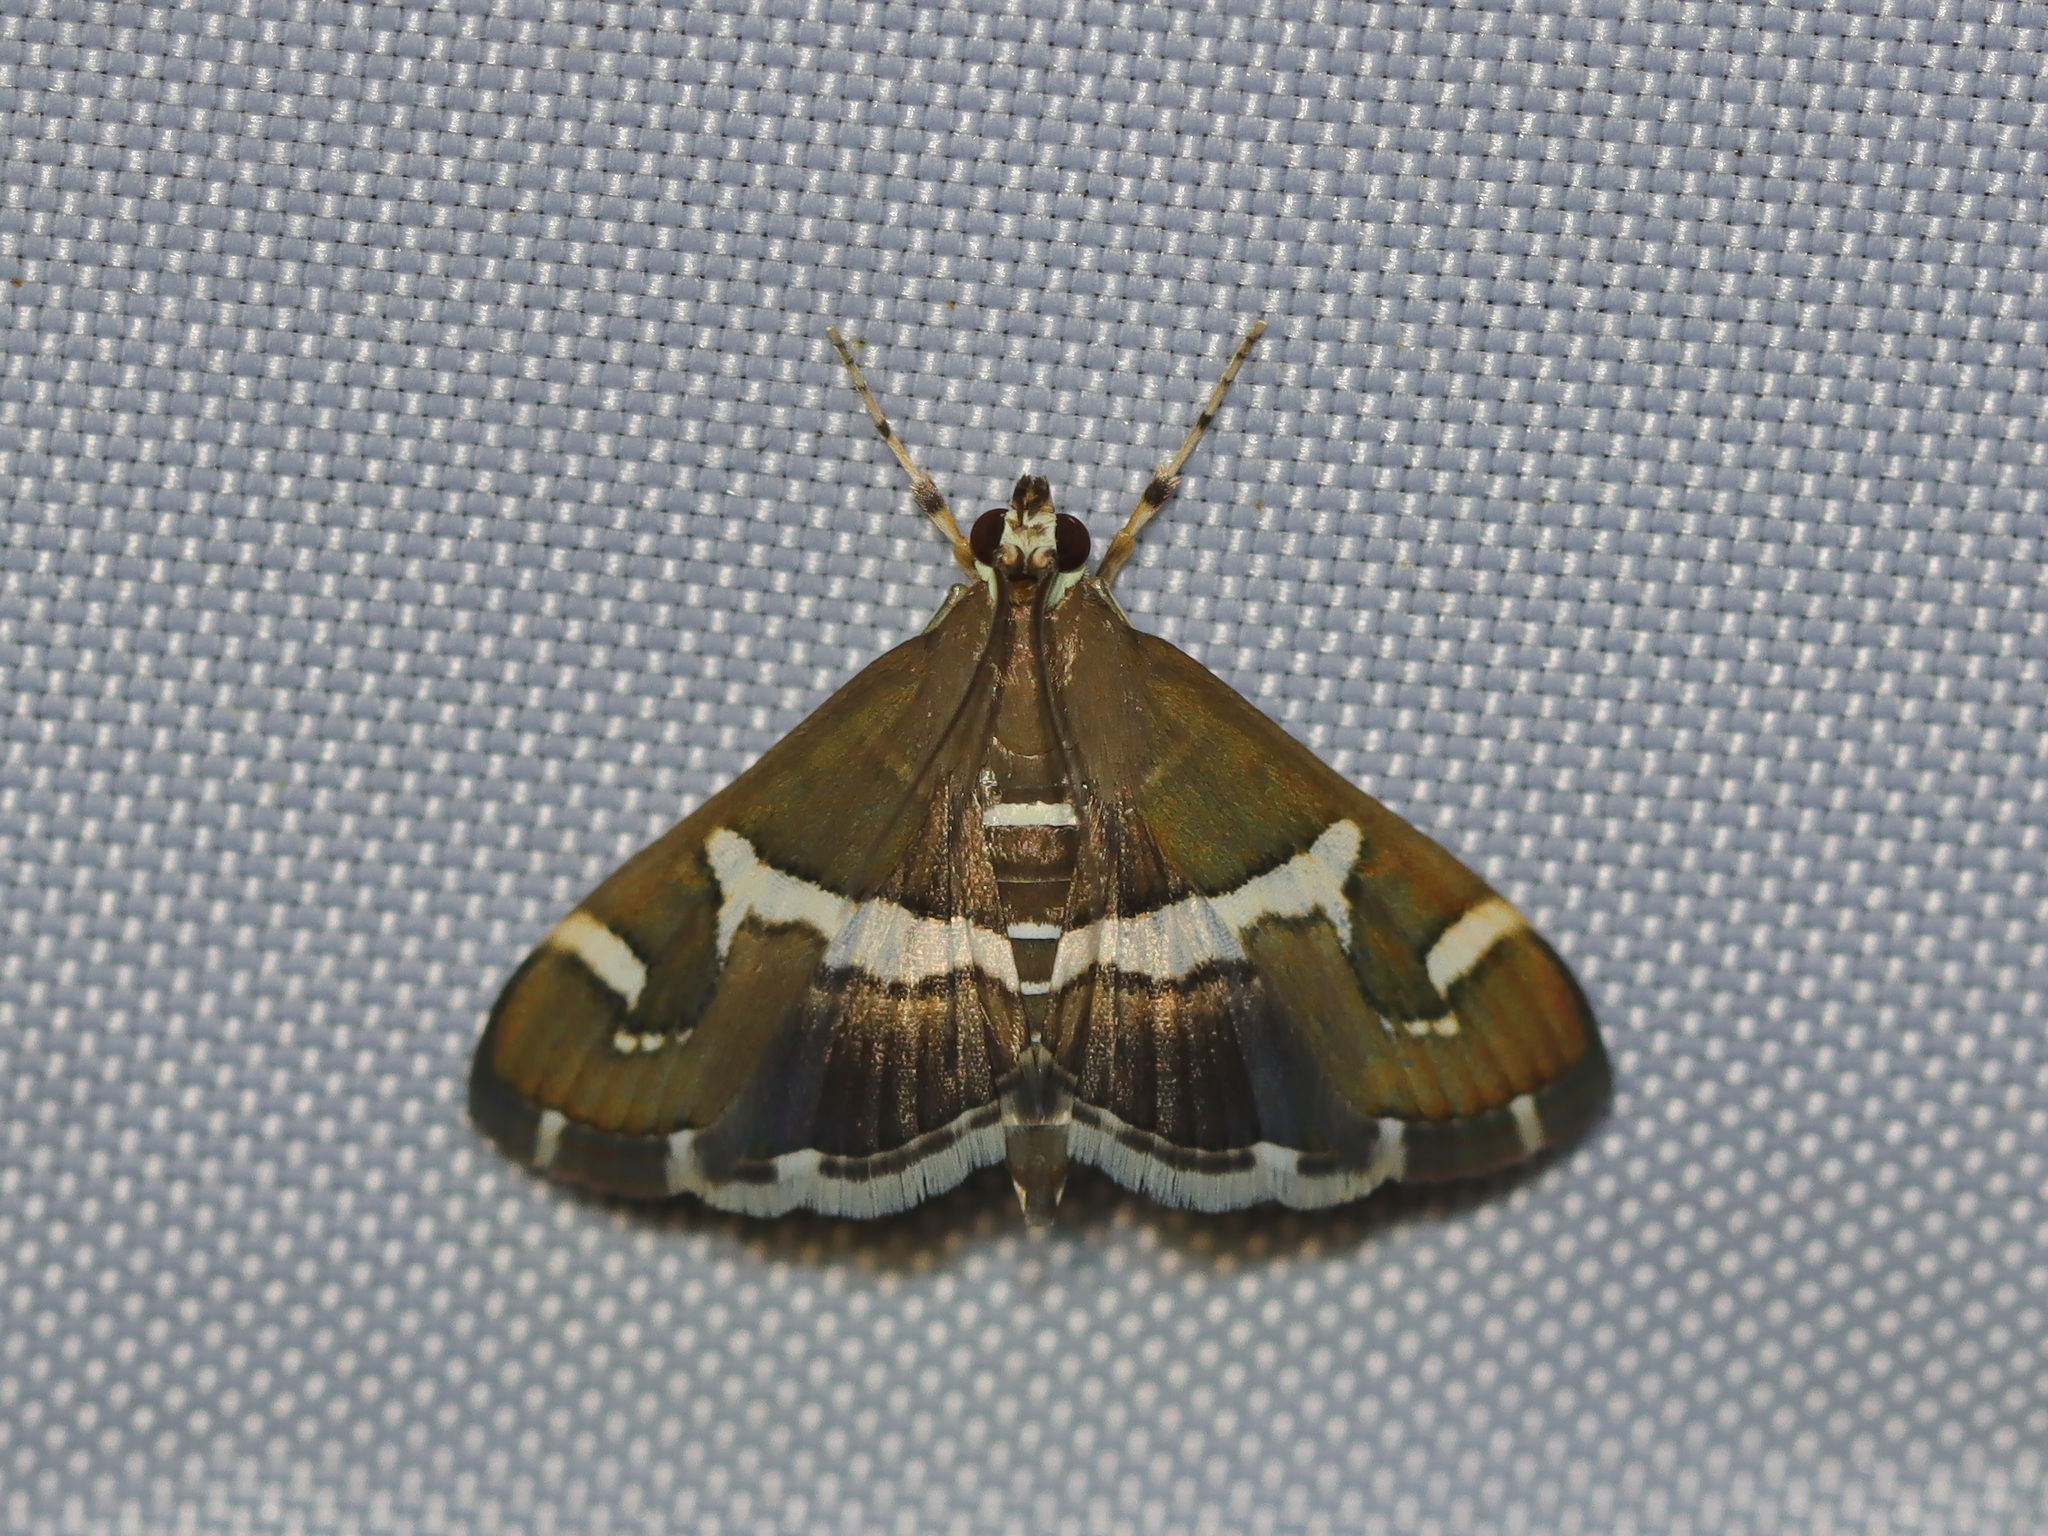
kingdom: Animalia
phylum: Arthropoda
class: Insecta
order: Lepidoptera
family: Crambidae
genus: Spoladea
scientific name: Spoladea recurvalis
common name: Beet webworm moth
